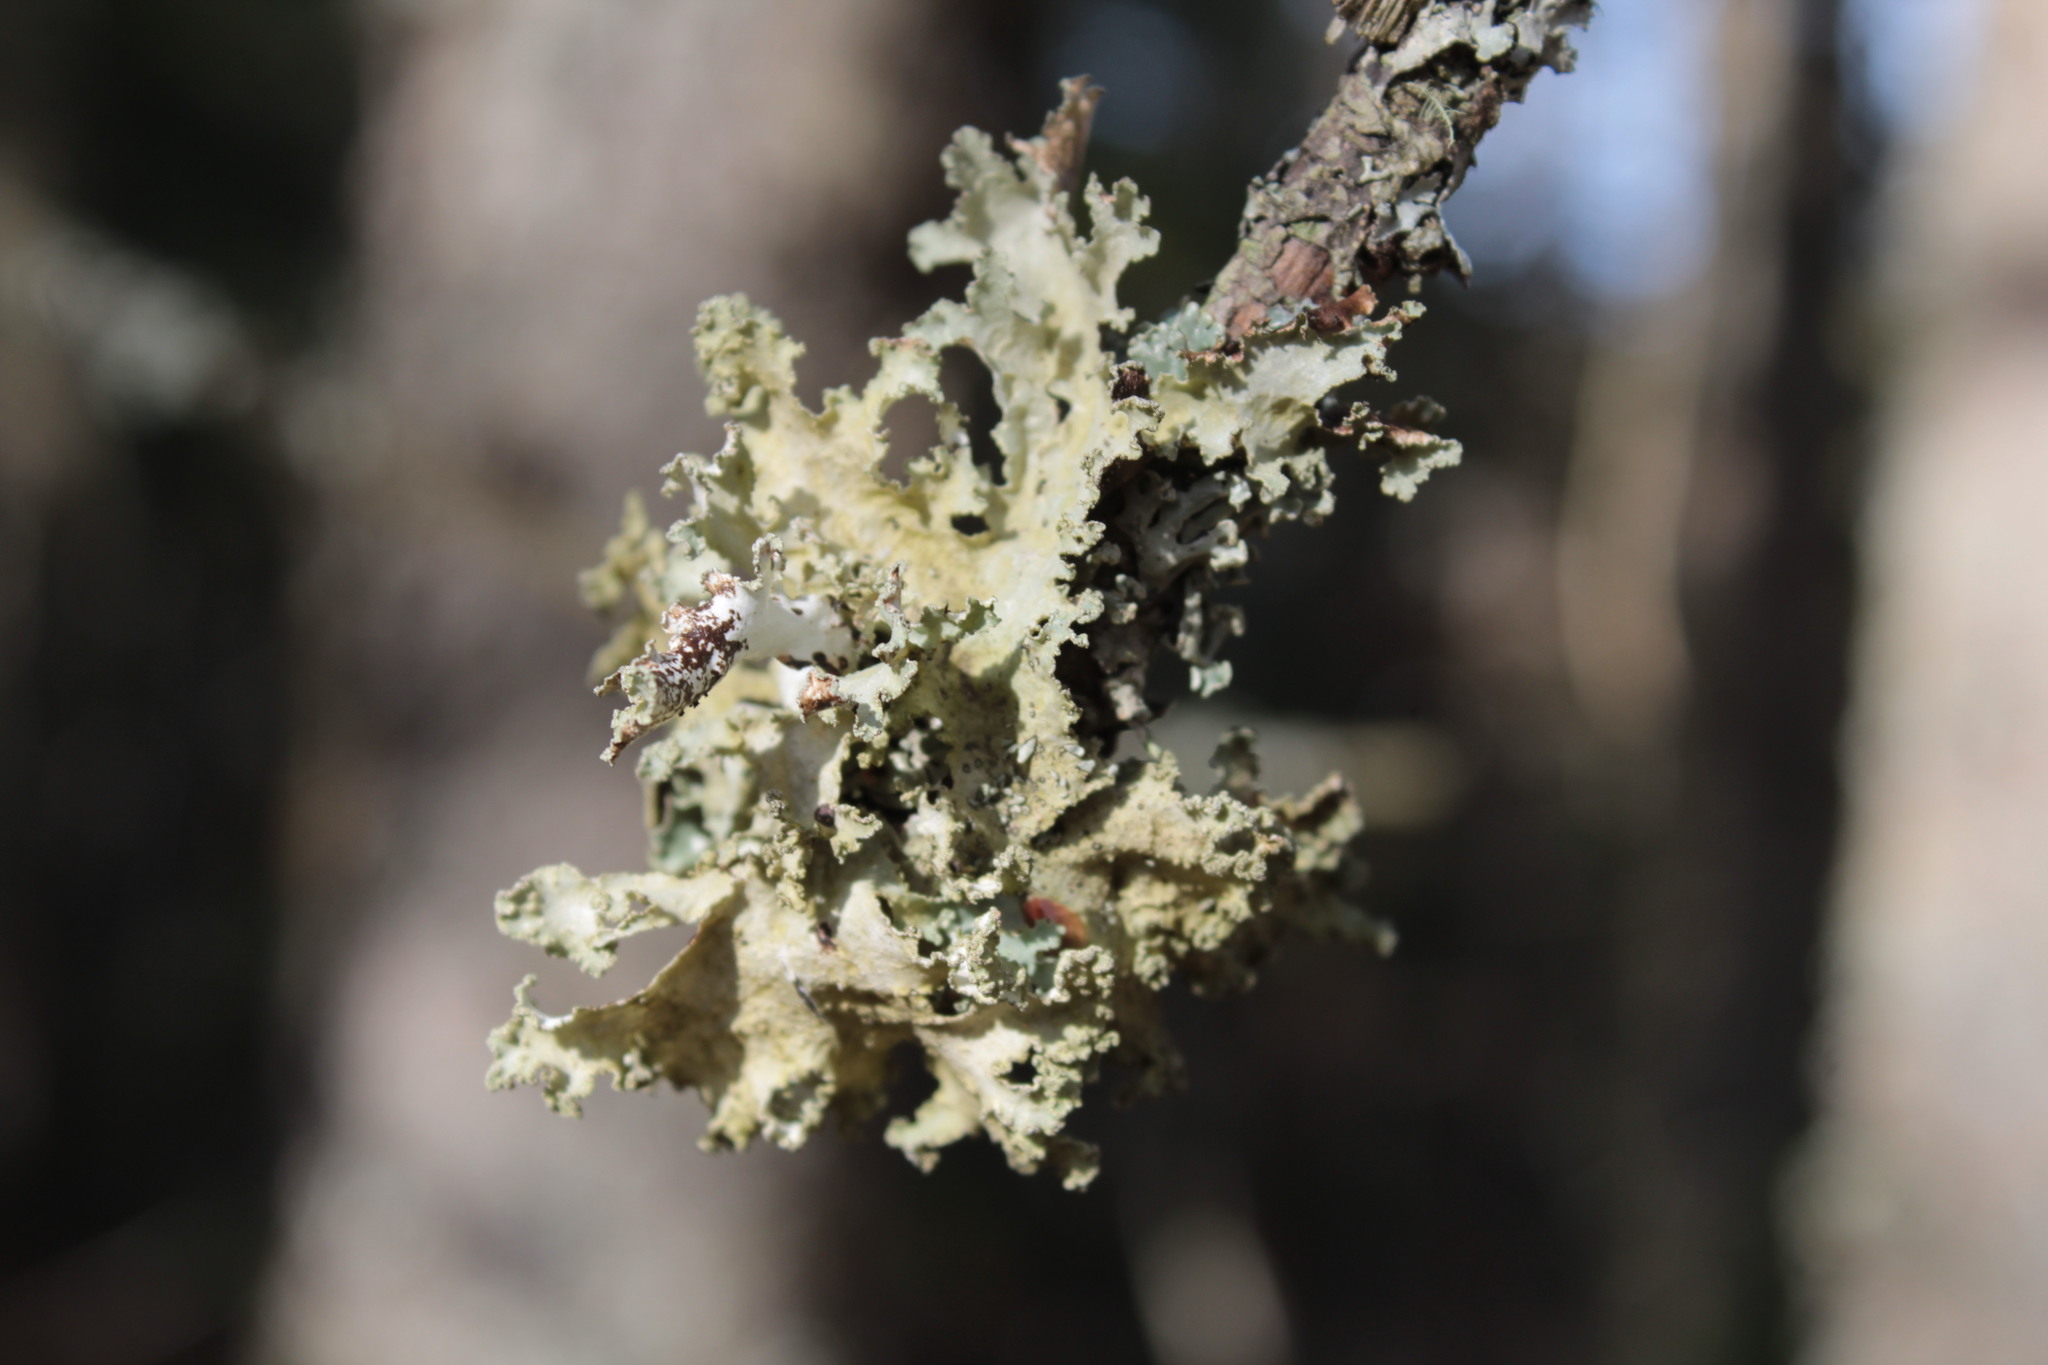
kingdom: Fungi
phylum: Ascomycota
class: Lecanoromycetes
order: Lecanorales
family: Parmeliaceae
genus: Platismatia
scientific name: Platismatia glauca
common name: Varied rag lichen
